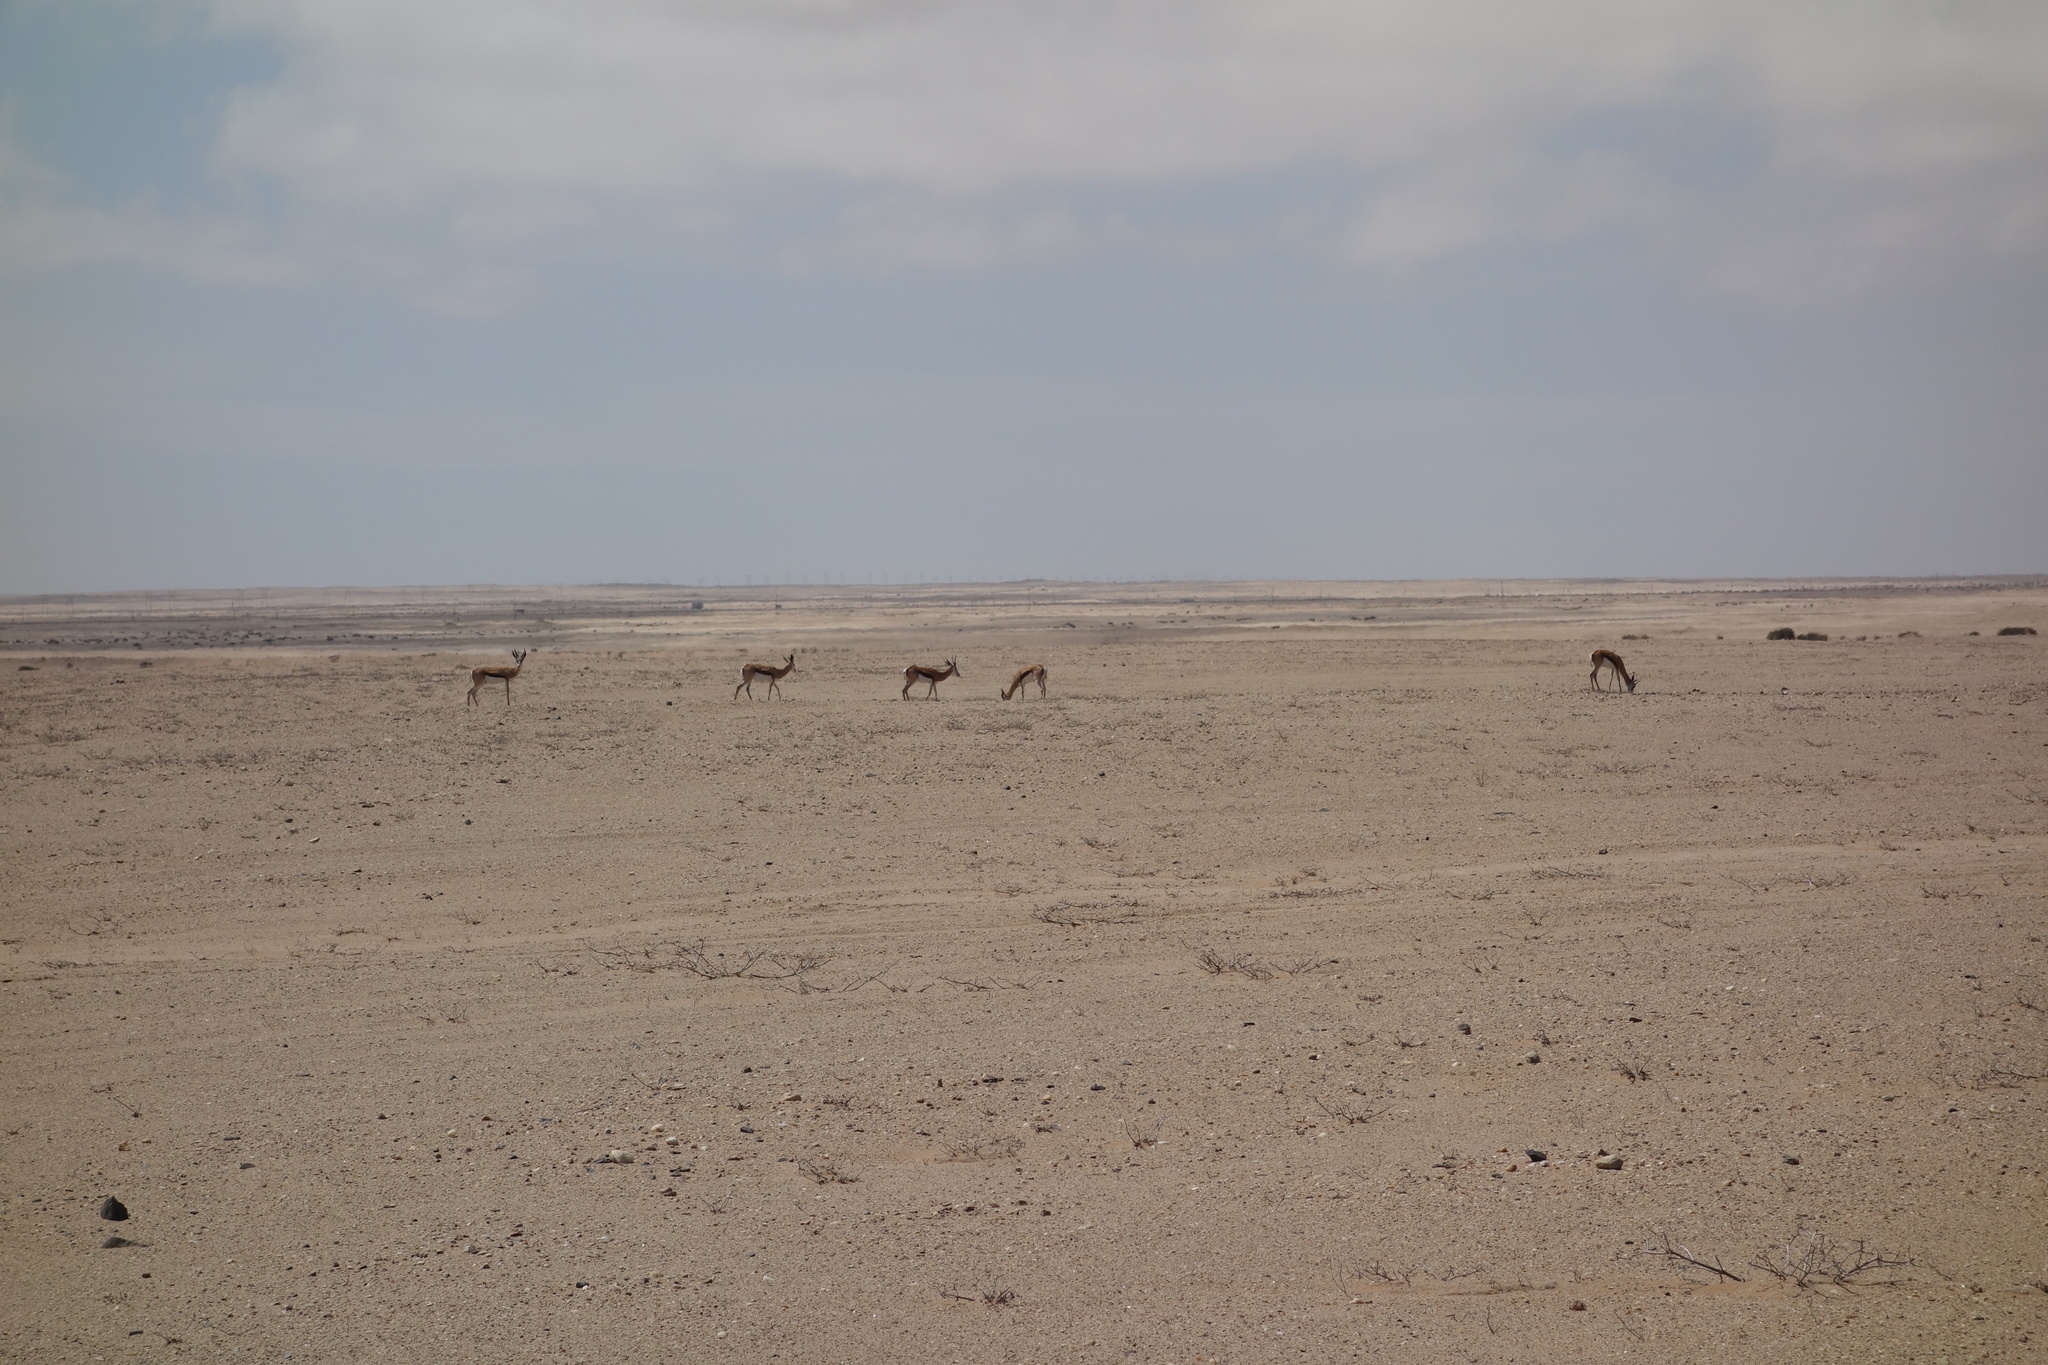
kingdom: Animalia
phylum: Chordata
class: Mammalia
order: Artiodactyla
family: Bovidae
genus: Antidorcas
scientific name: Antidorcas marsupialis
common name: Springbok
